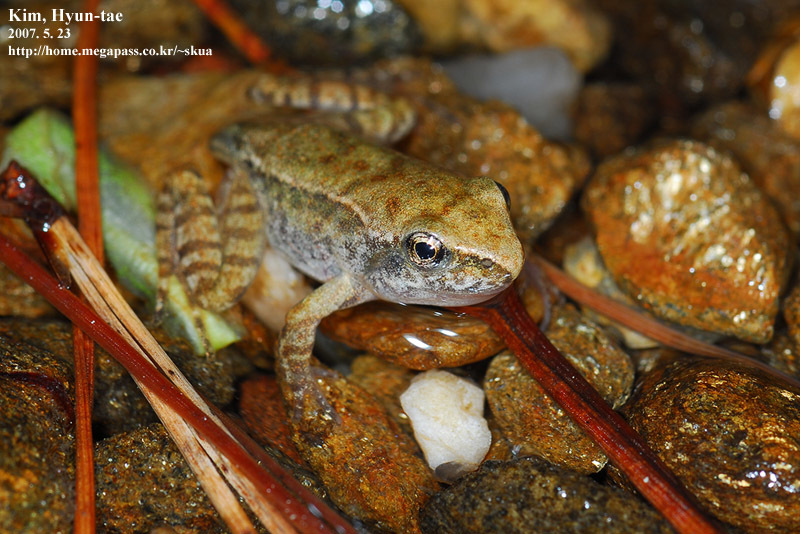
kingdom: Animalia
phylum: Chordata
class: Amphibia
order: Anura
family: Ranidae
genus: Rana
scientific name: Rana uenoi
